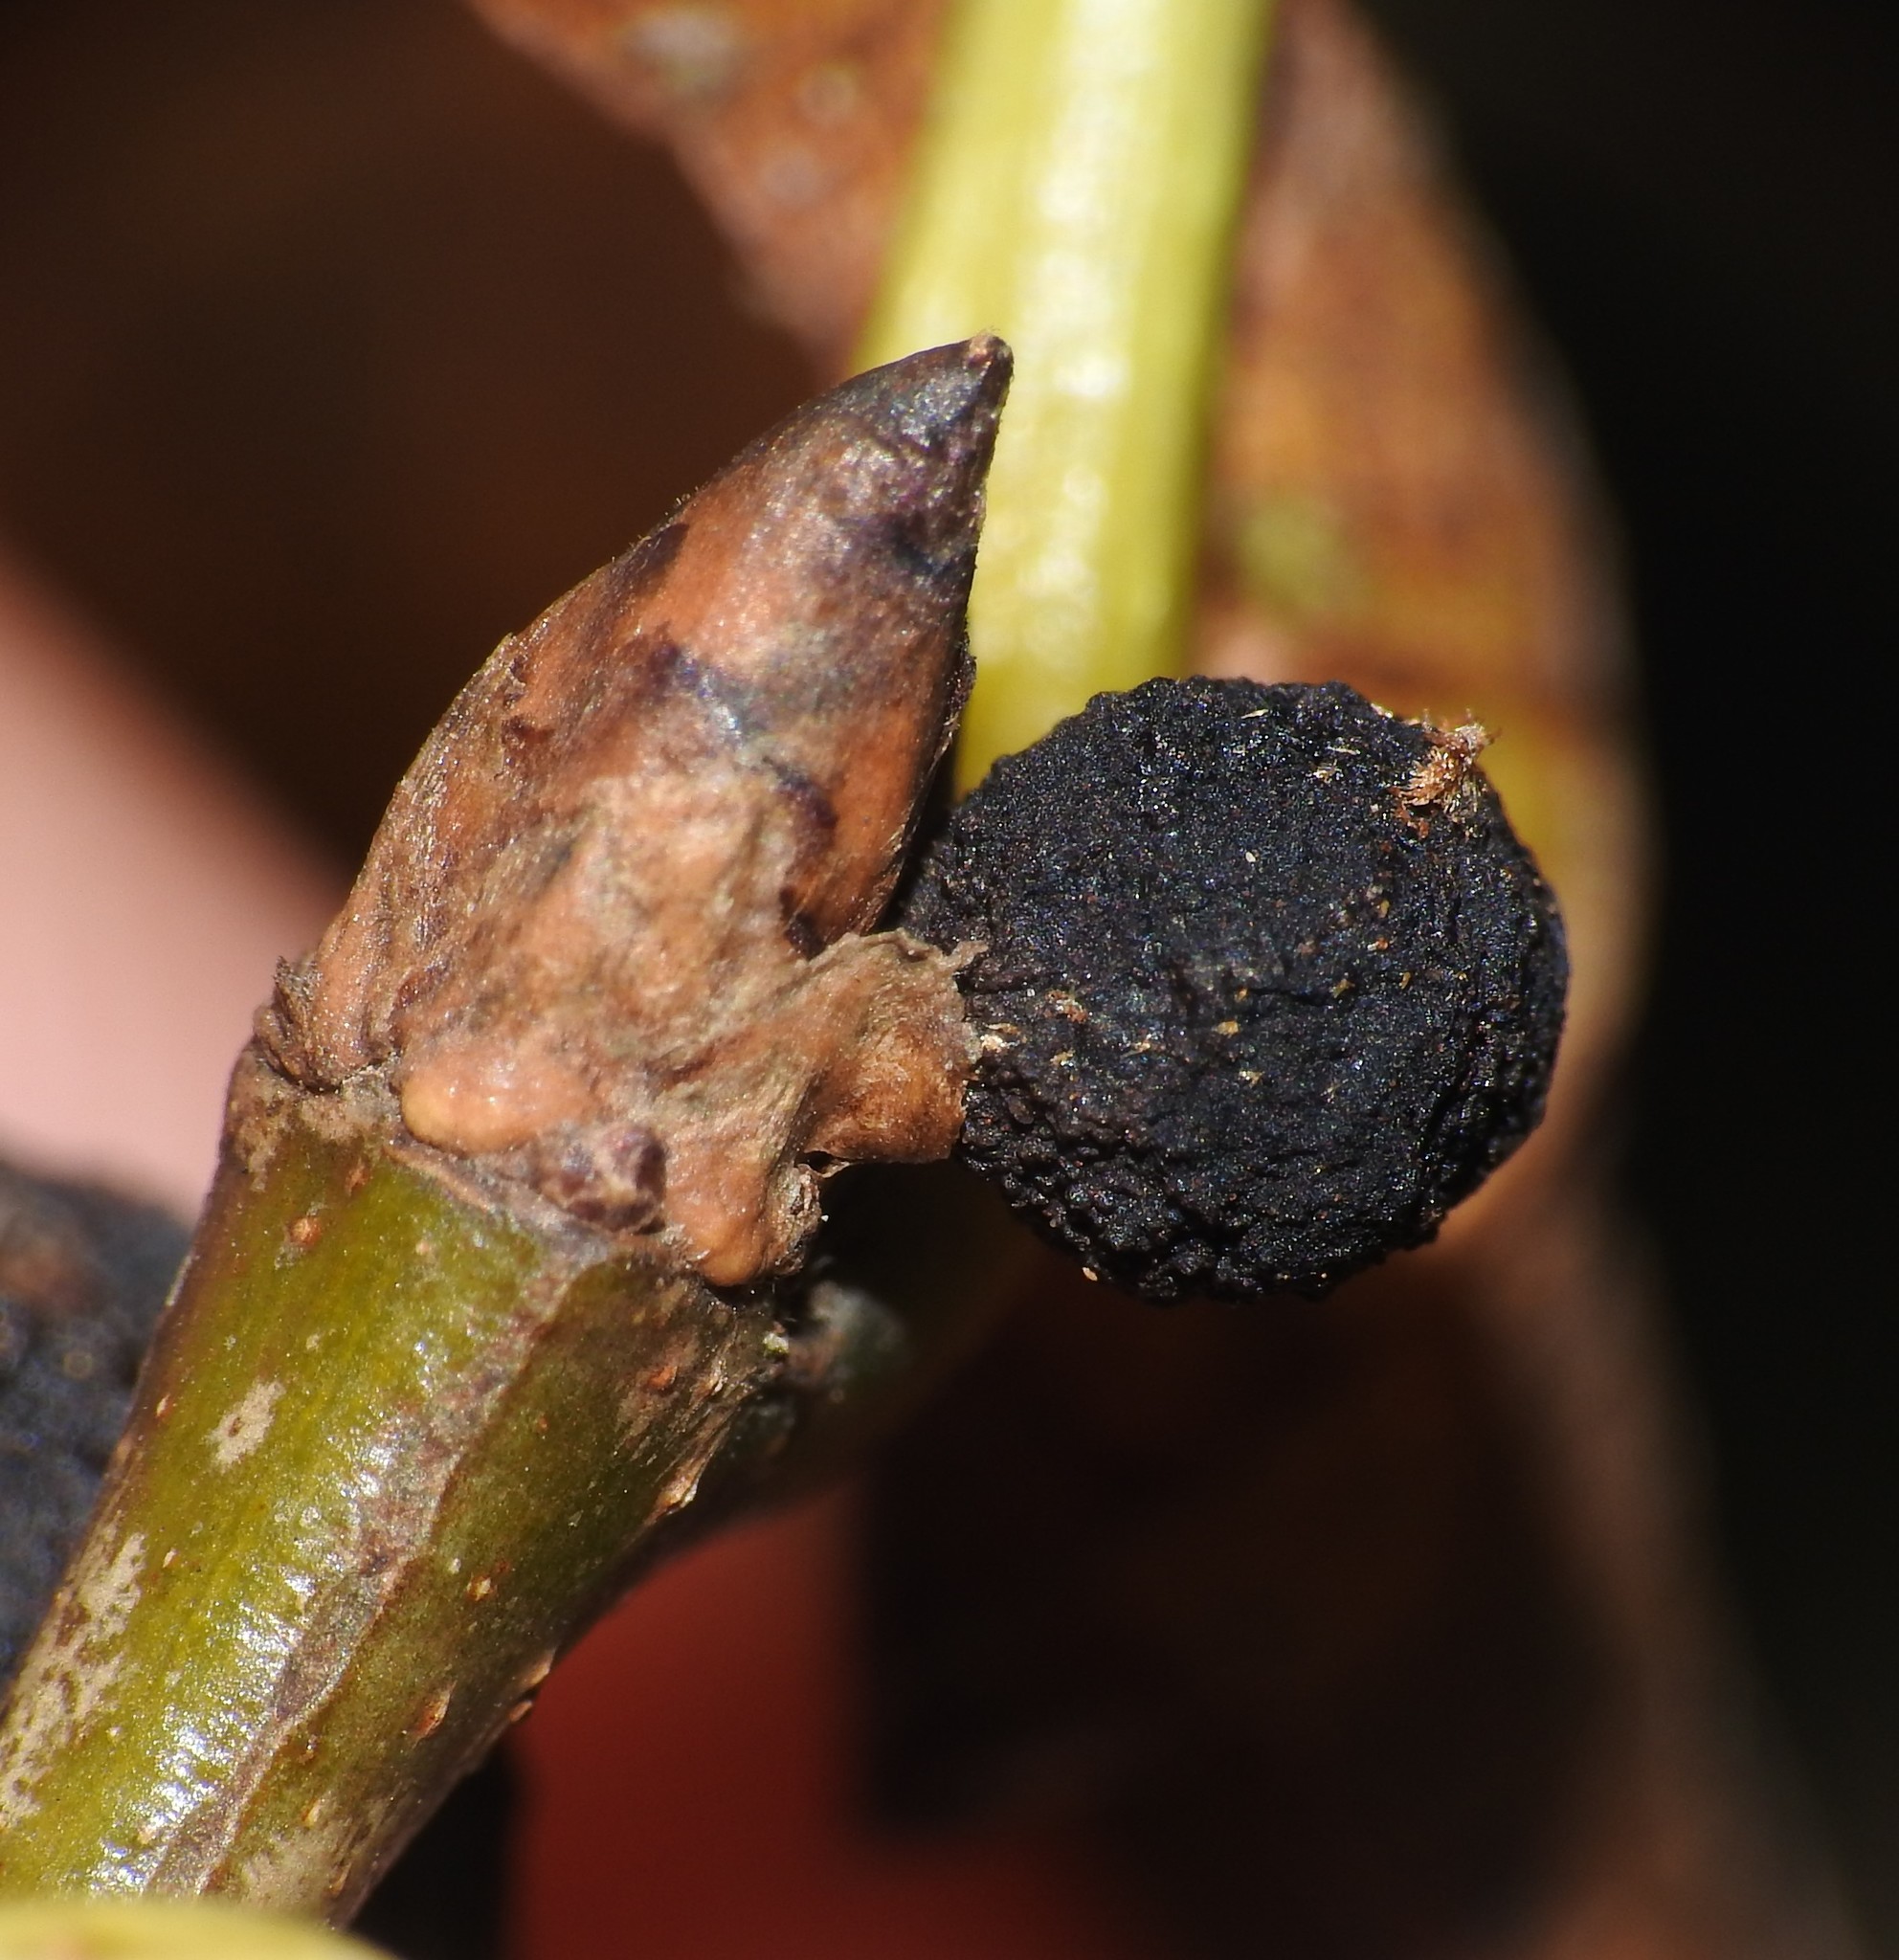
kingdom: Animalia
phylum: Arthropoda
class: Insecta
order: Hymenoptera
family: Cynipidae
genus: Callirhytis
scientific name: Callirhytis
